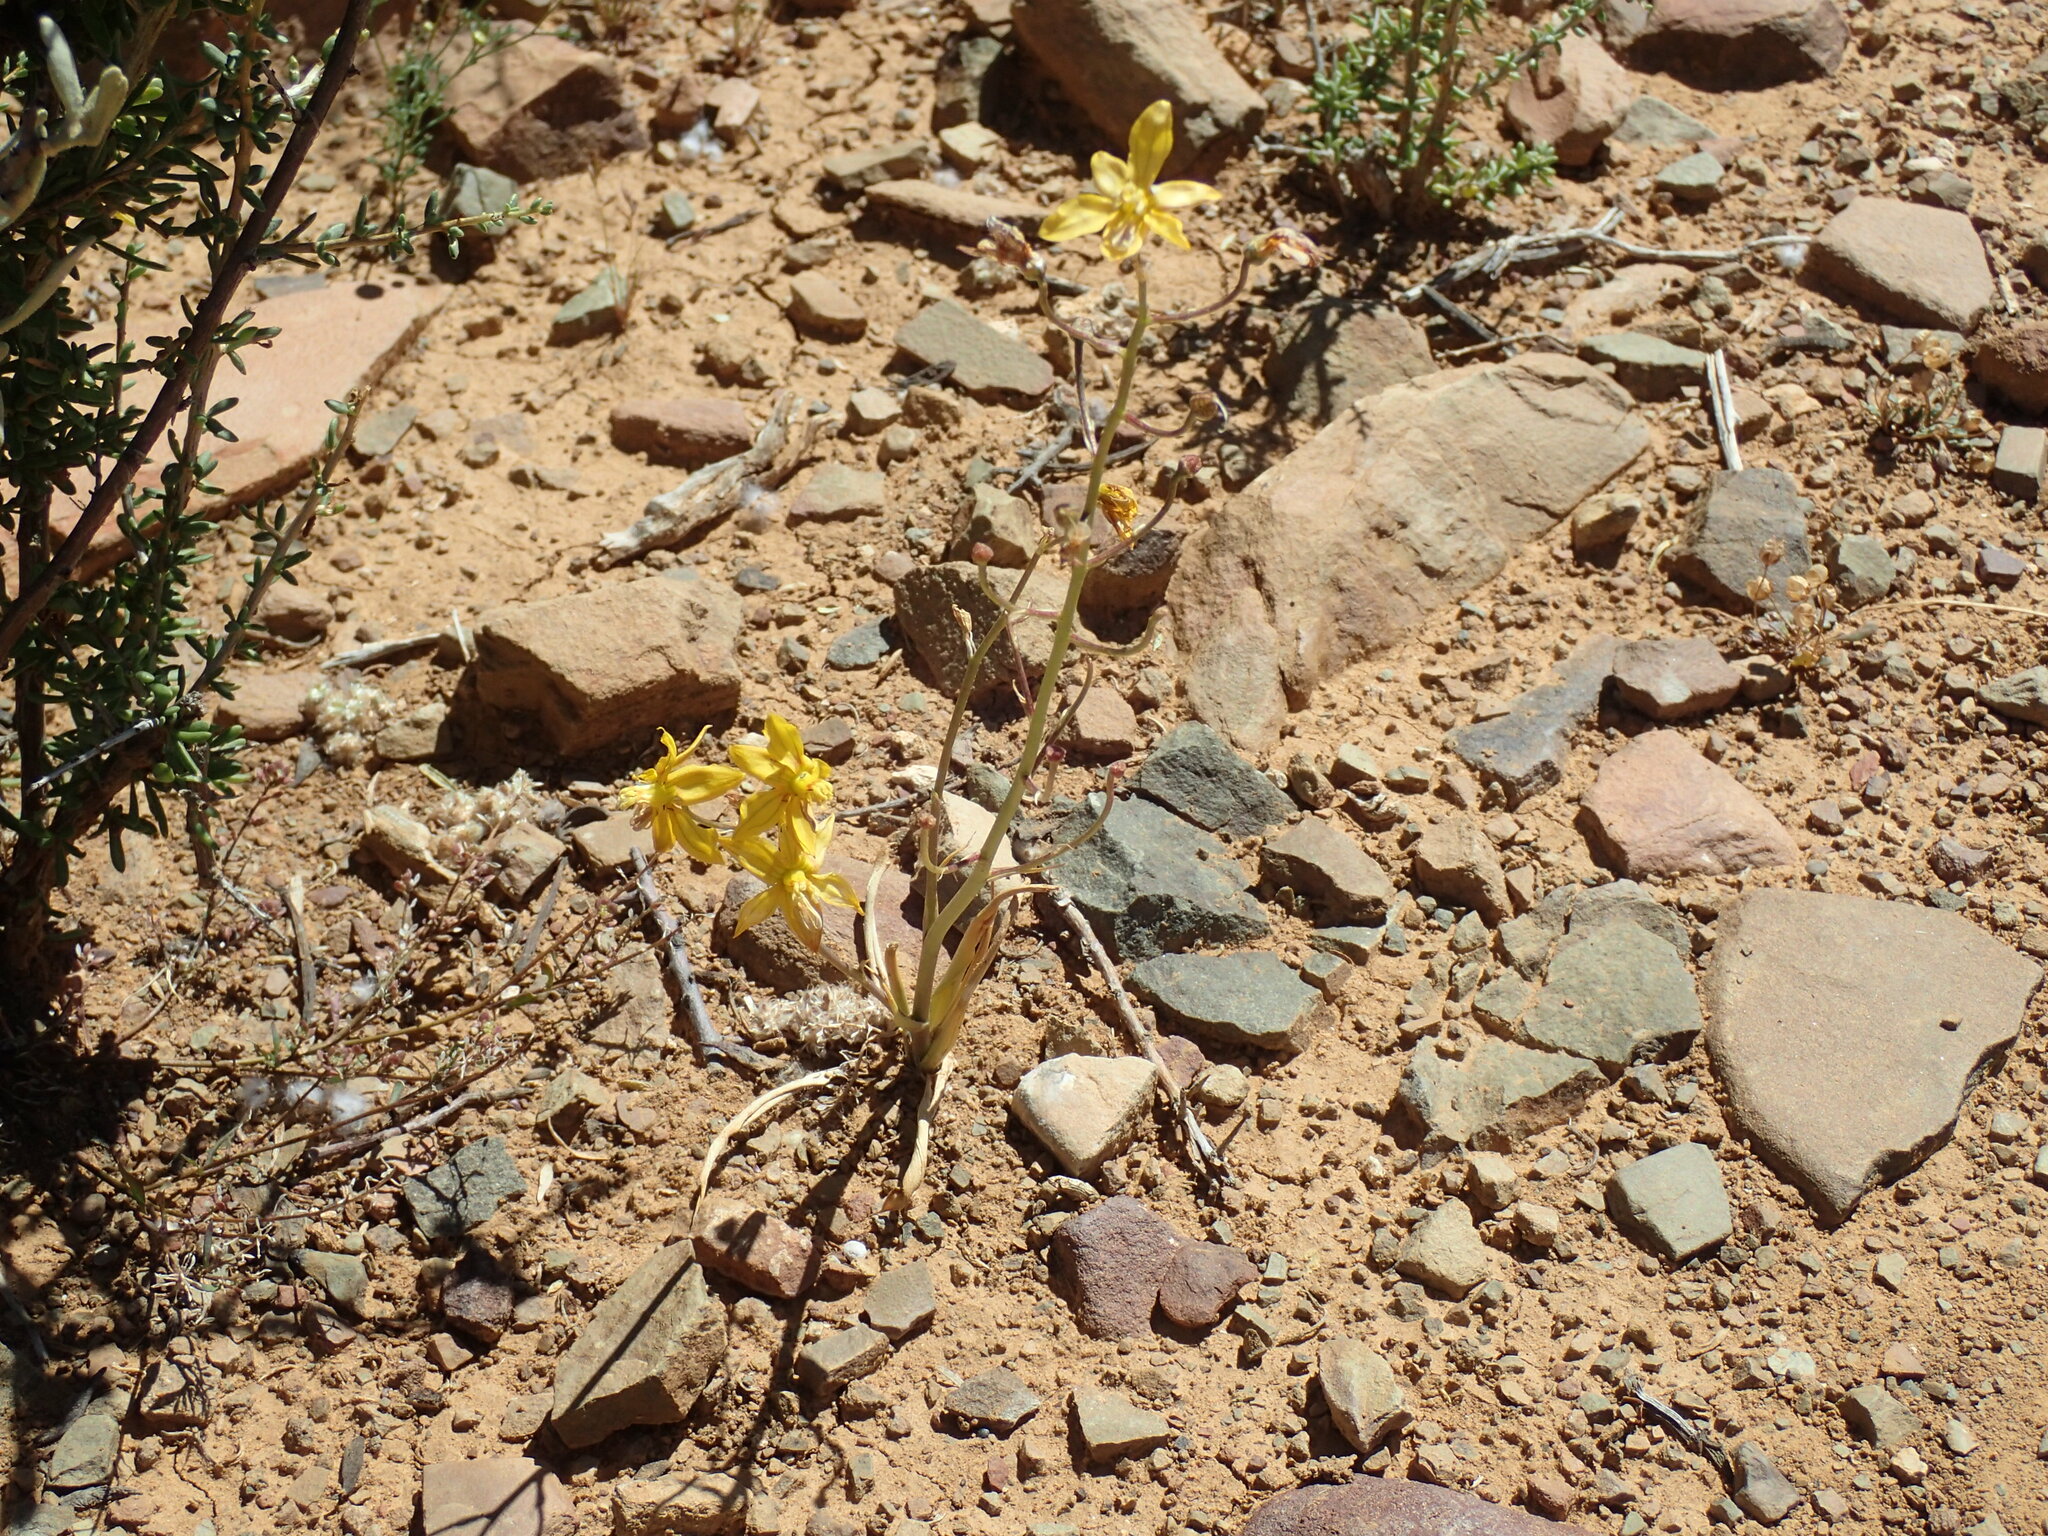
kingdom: Plantae
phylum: Tracheophyta
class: Liliopsida
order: Asparagales
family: Tecophilaeaceae
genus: Cyanella
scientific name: Cyanella lutea
